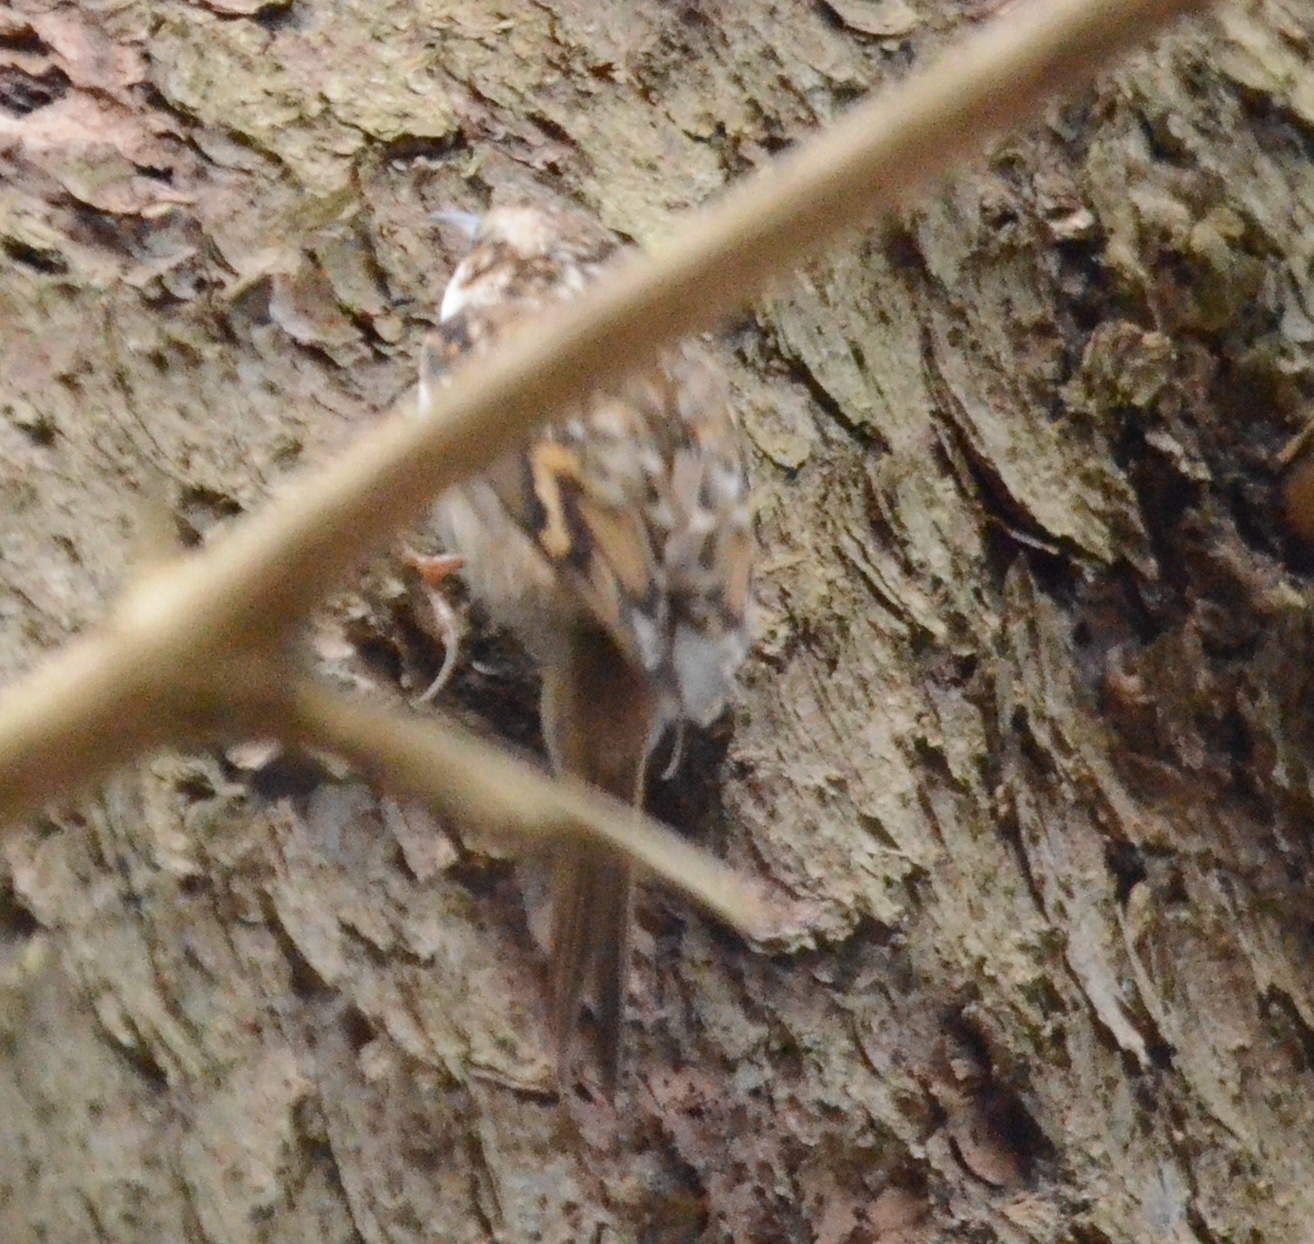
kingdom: Animalia
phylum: Chordata
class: Aves
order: Passeriformes
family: Certhiidae
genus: Certhia
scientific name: Certhia brachydactyla
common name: Short-toed treecreeper
